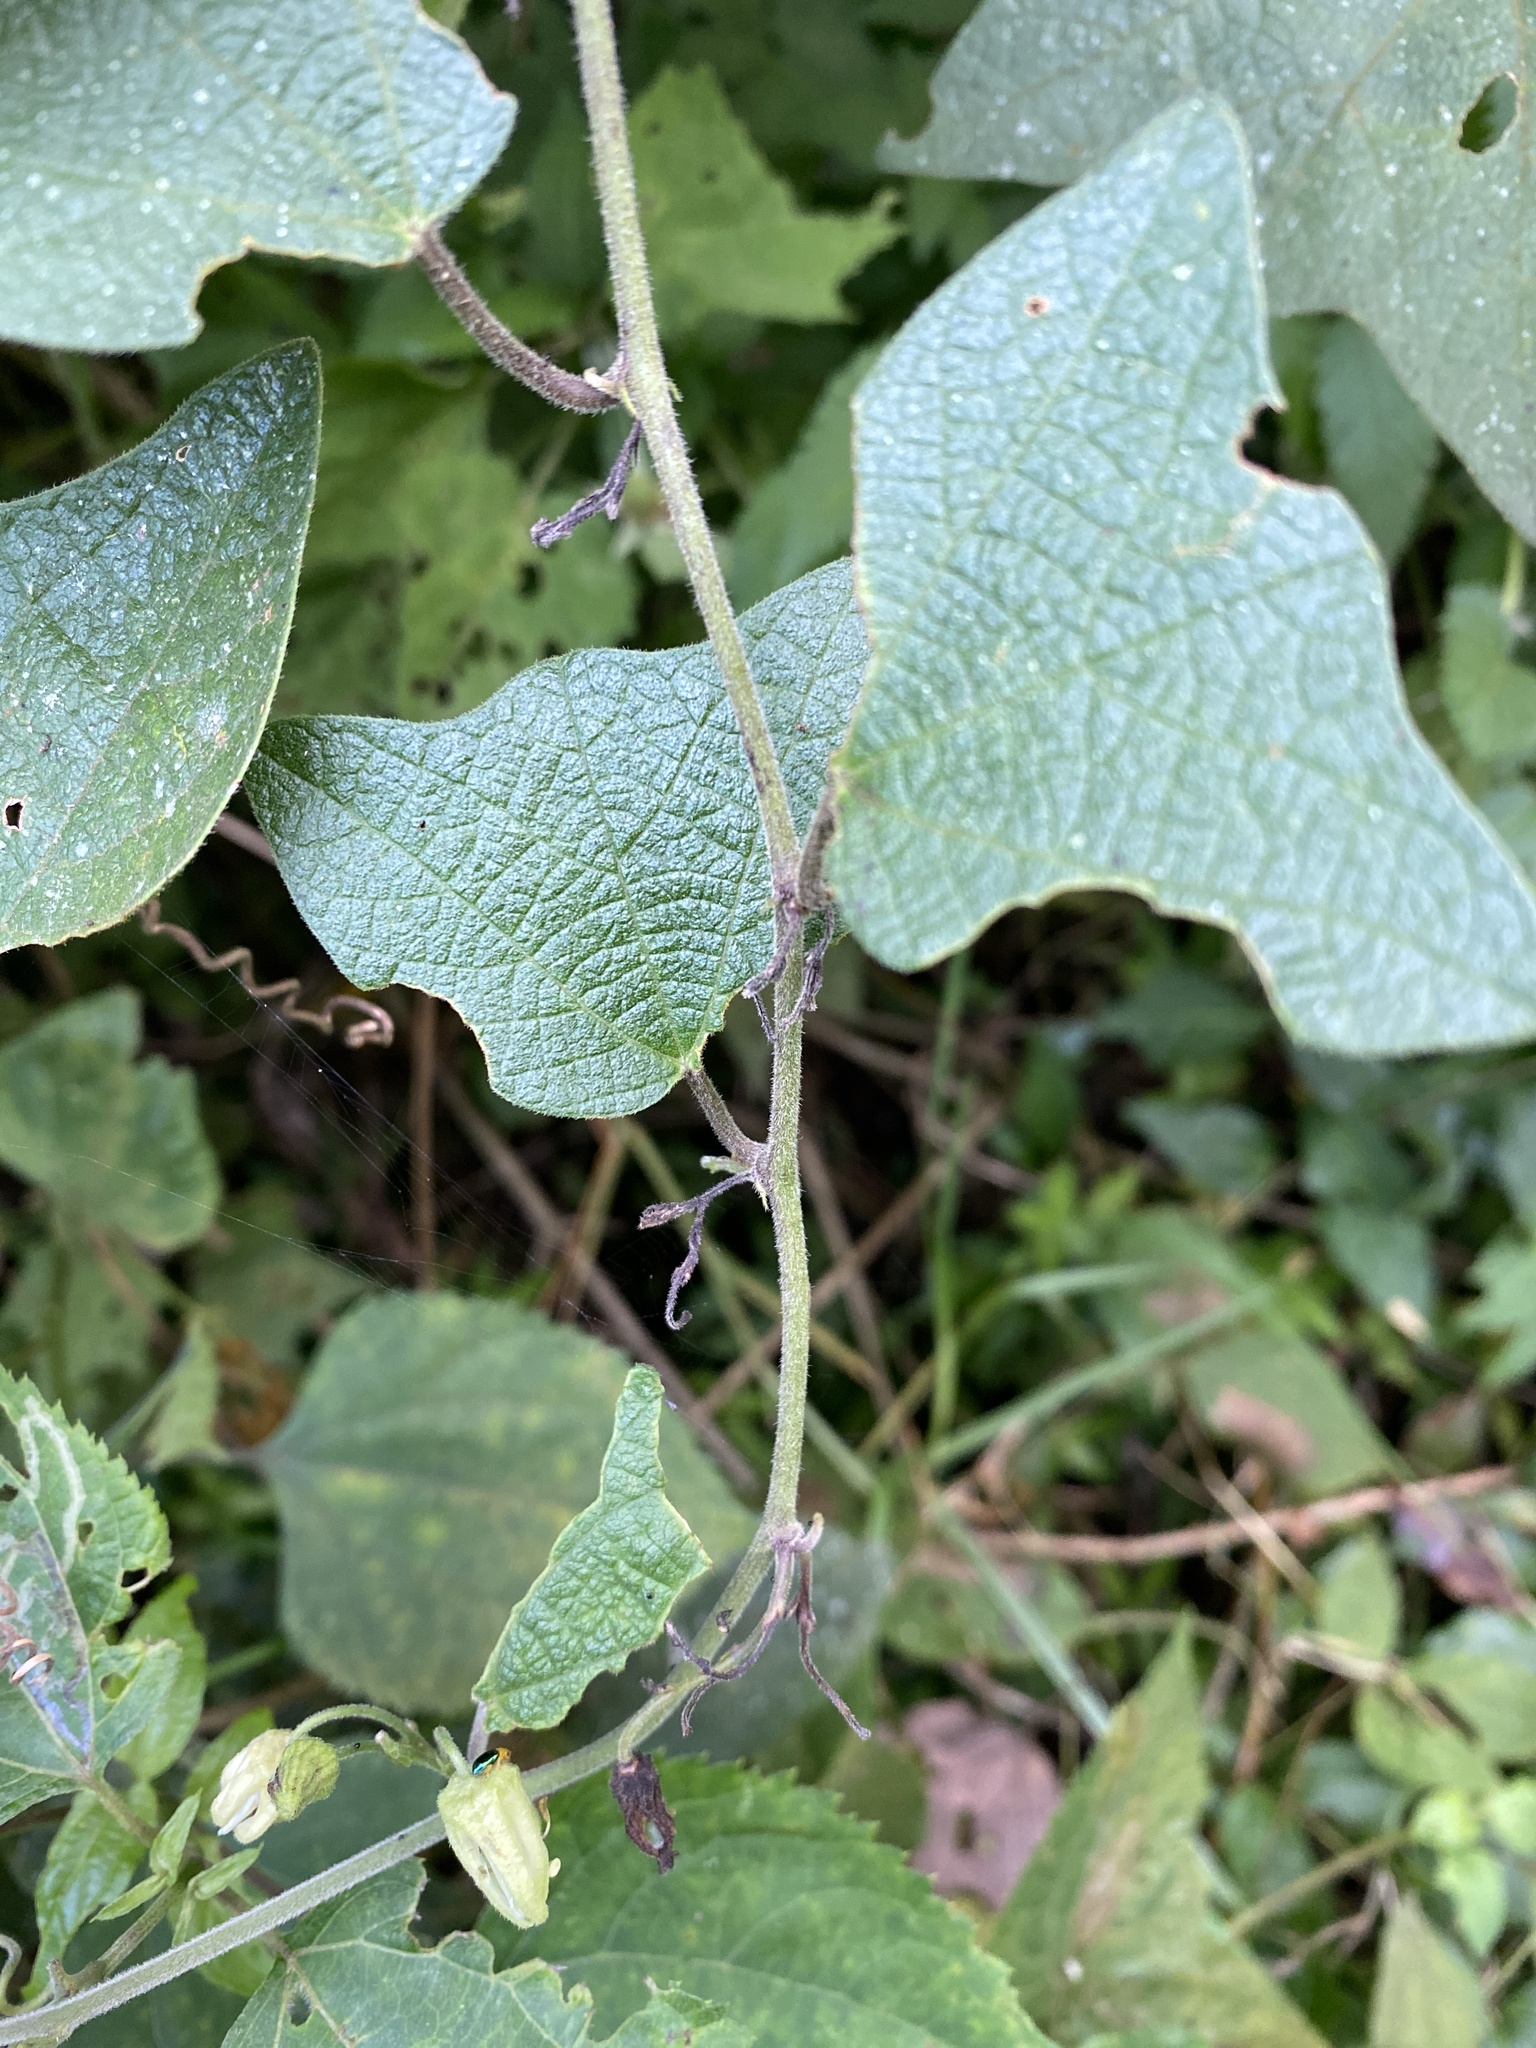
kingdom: Plantae
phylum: Tracheophyta
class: Magnoliopsida
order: Malpighiales
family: Passifloraceae
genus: Passiflora
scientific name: Passiflora sexflora
